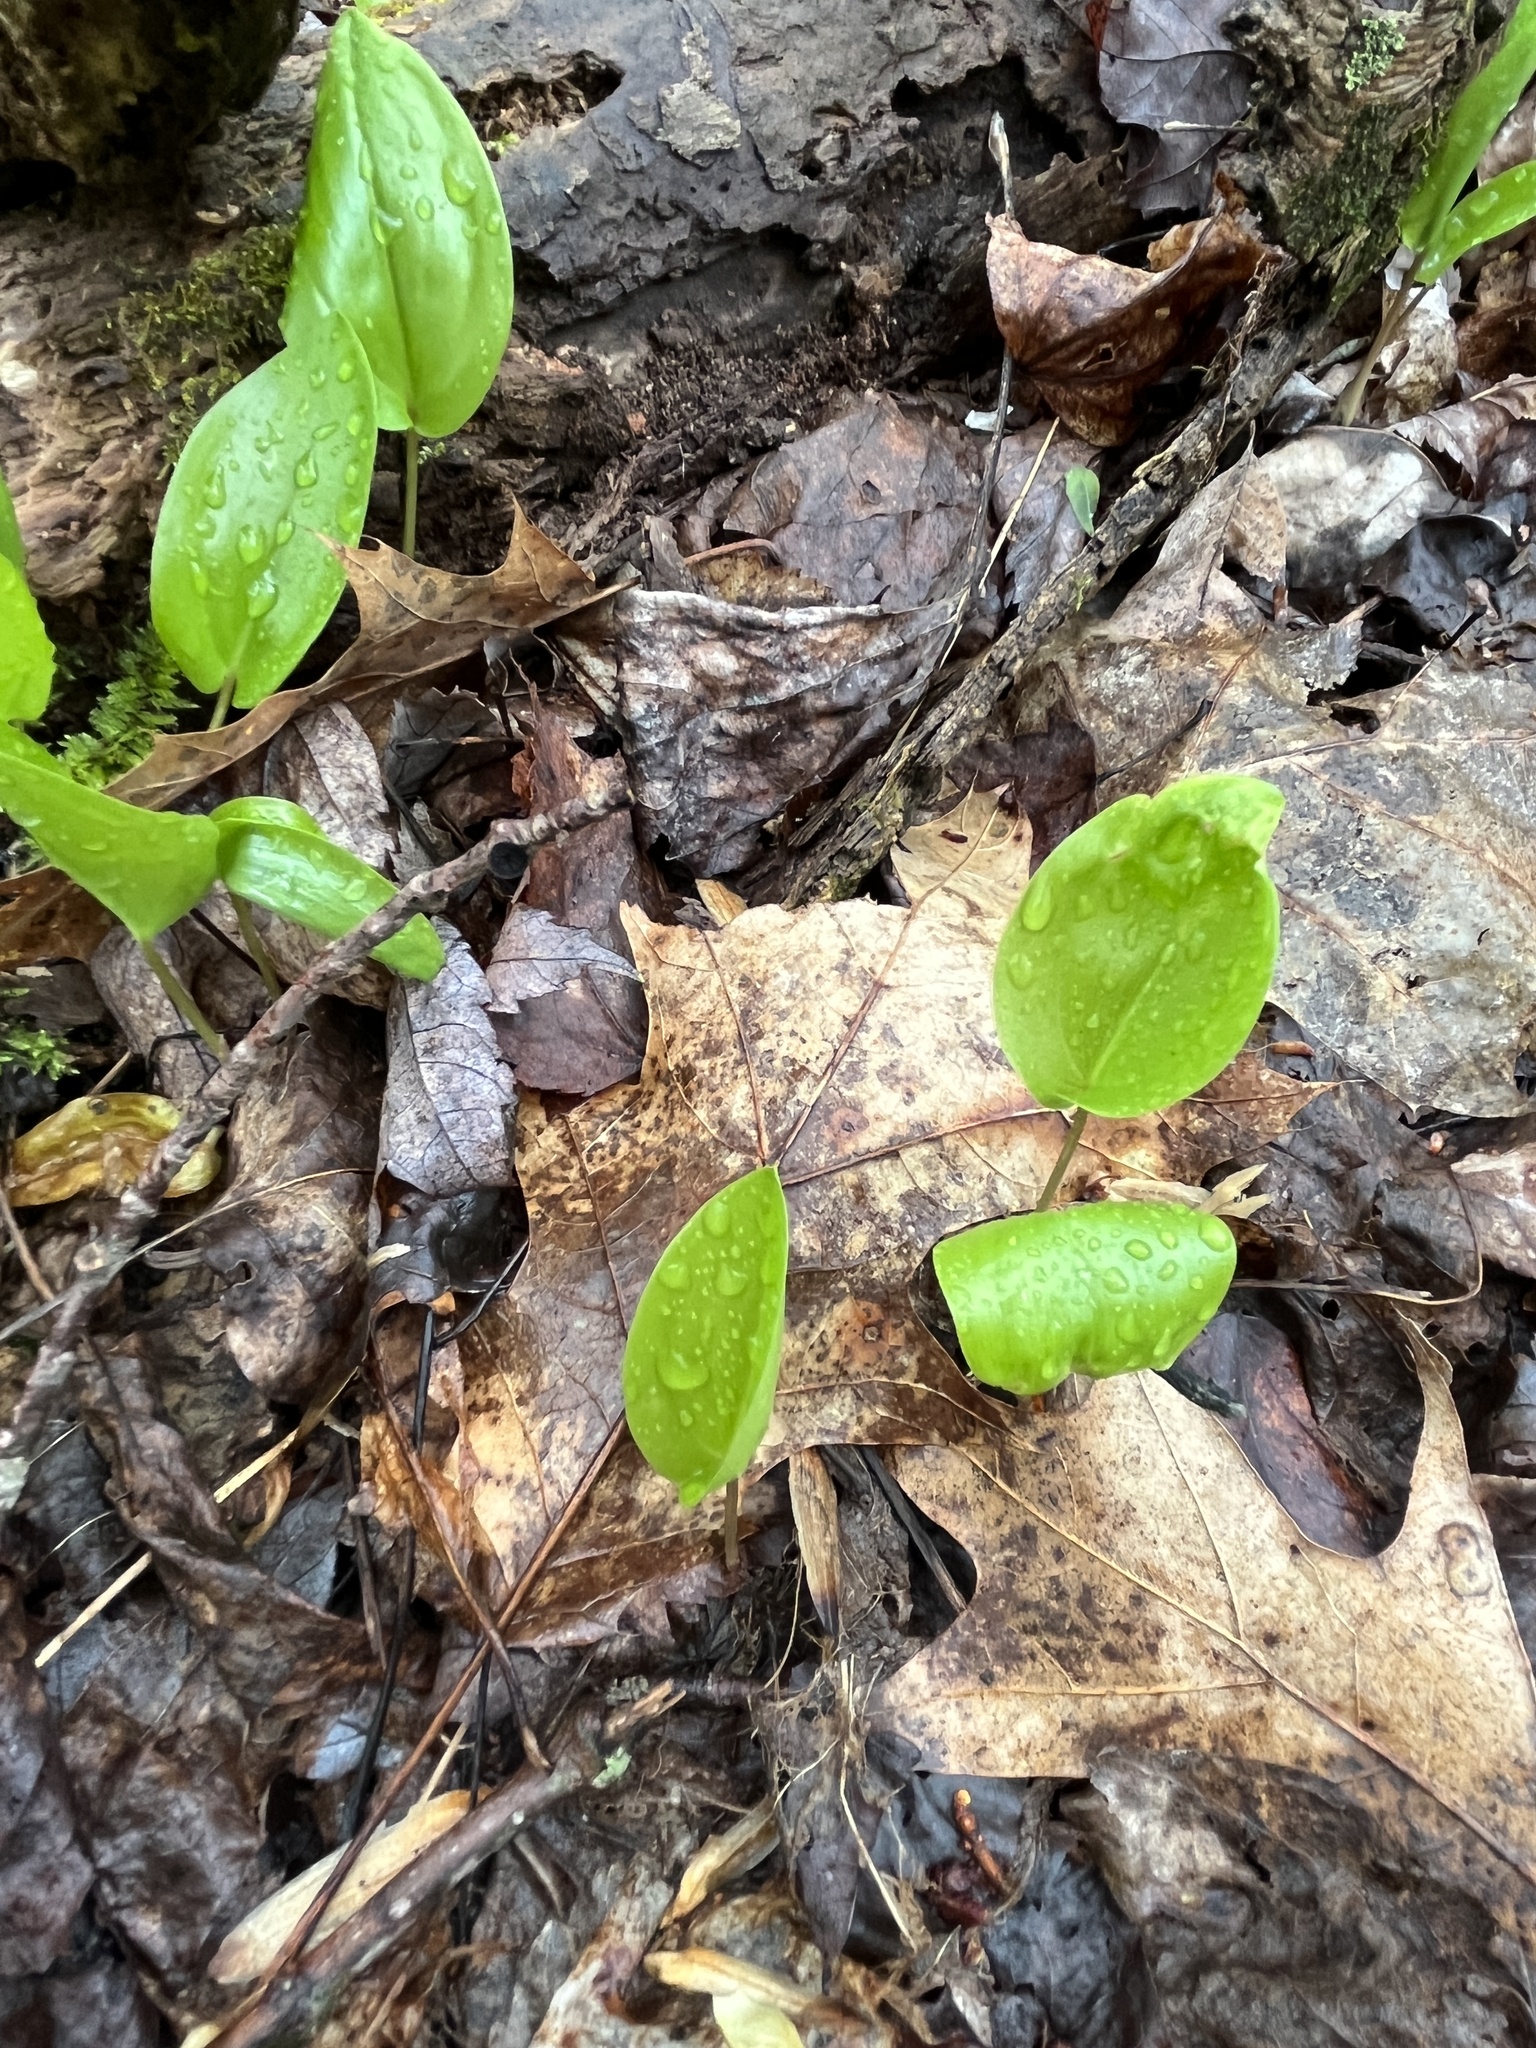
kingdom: Plantae
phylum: Tracheophyta
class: Liliopsida
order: Asparagales
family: Asparagaceae
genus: Maianthemum
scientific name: Maianthemum canadense
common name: False lily-of-the-valley
